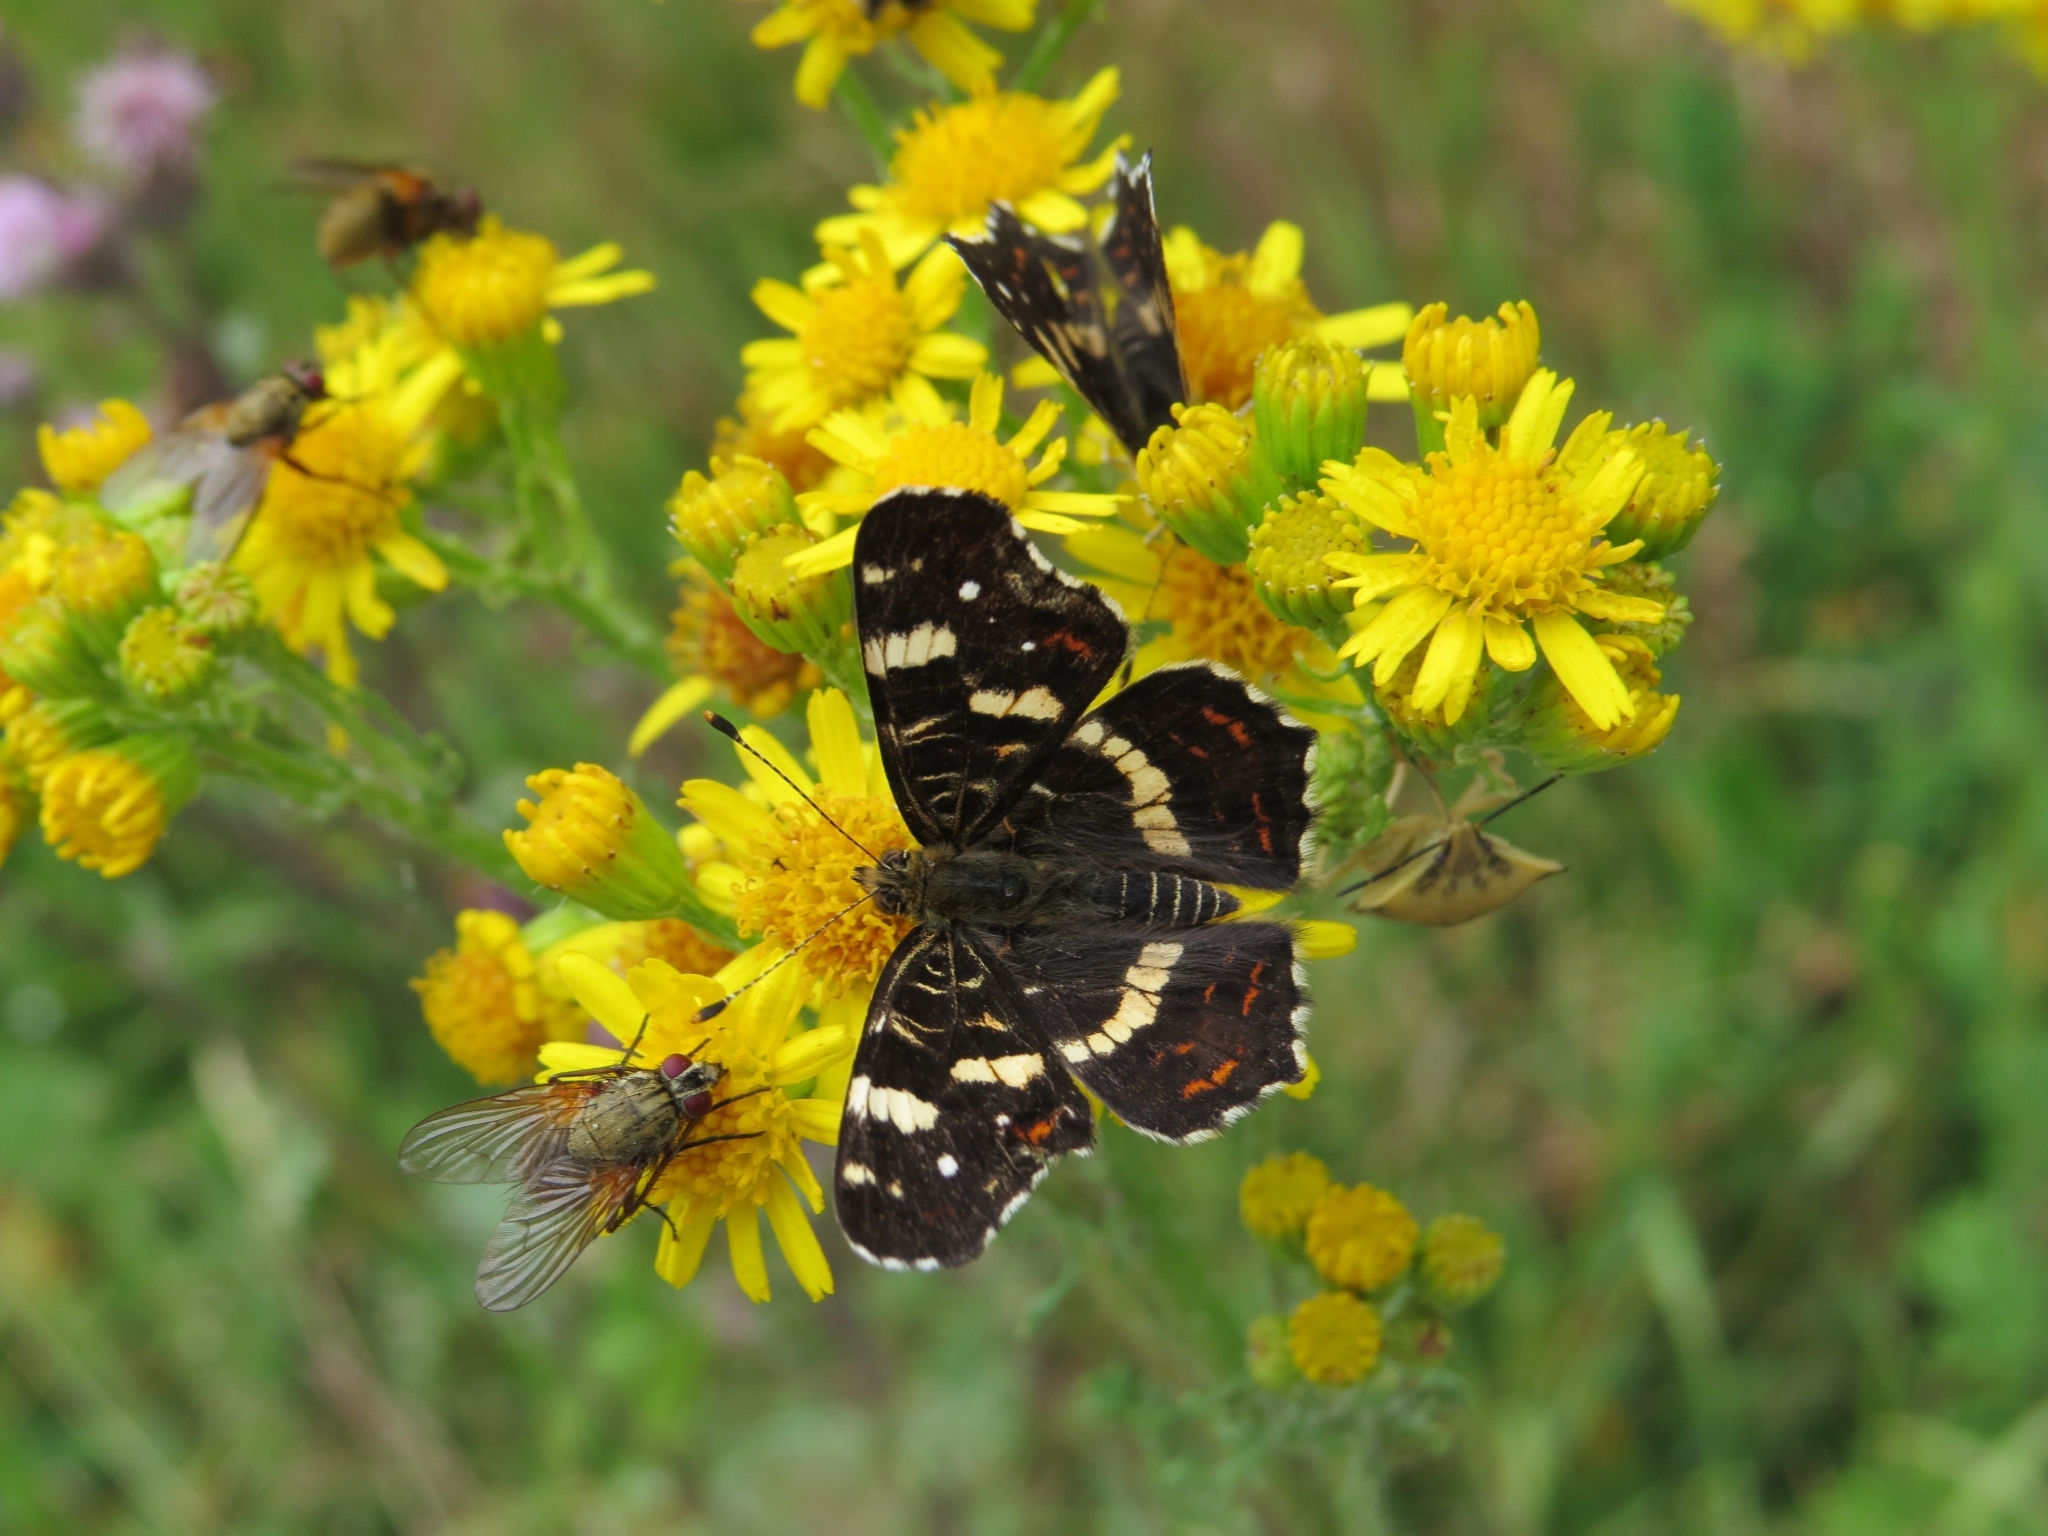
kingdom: Animalia
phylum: Arthropoda
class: Insecta
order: Lepidoptera
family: Nymphalidae
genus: Araschnia
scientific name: Araschnia levana
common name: Map butterfly
